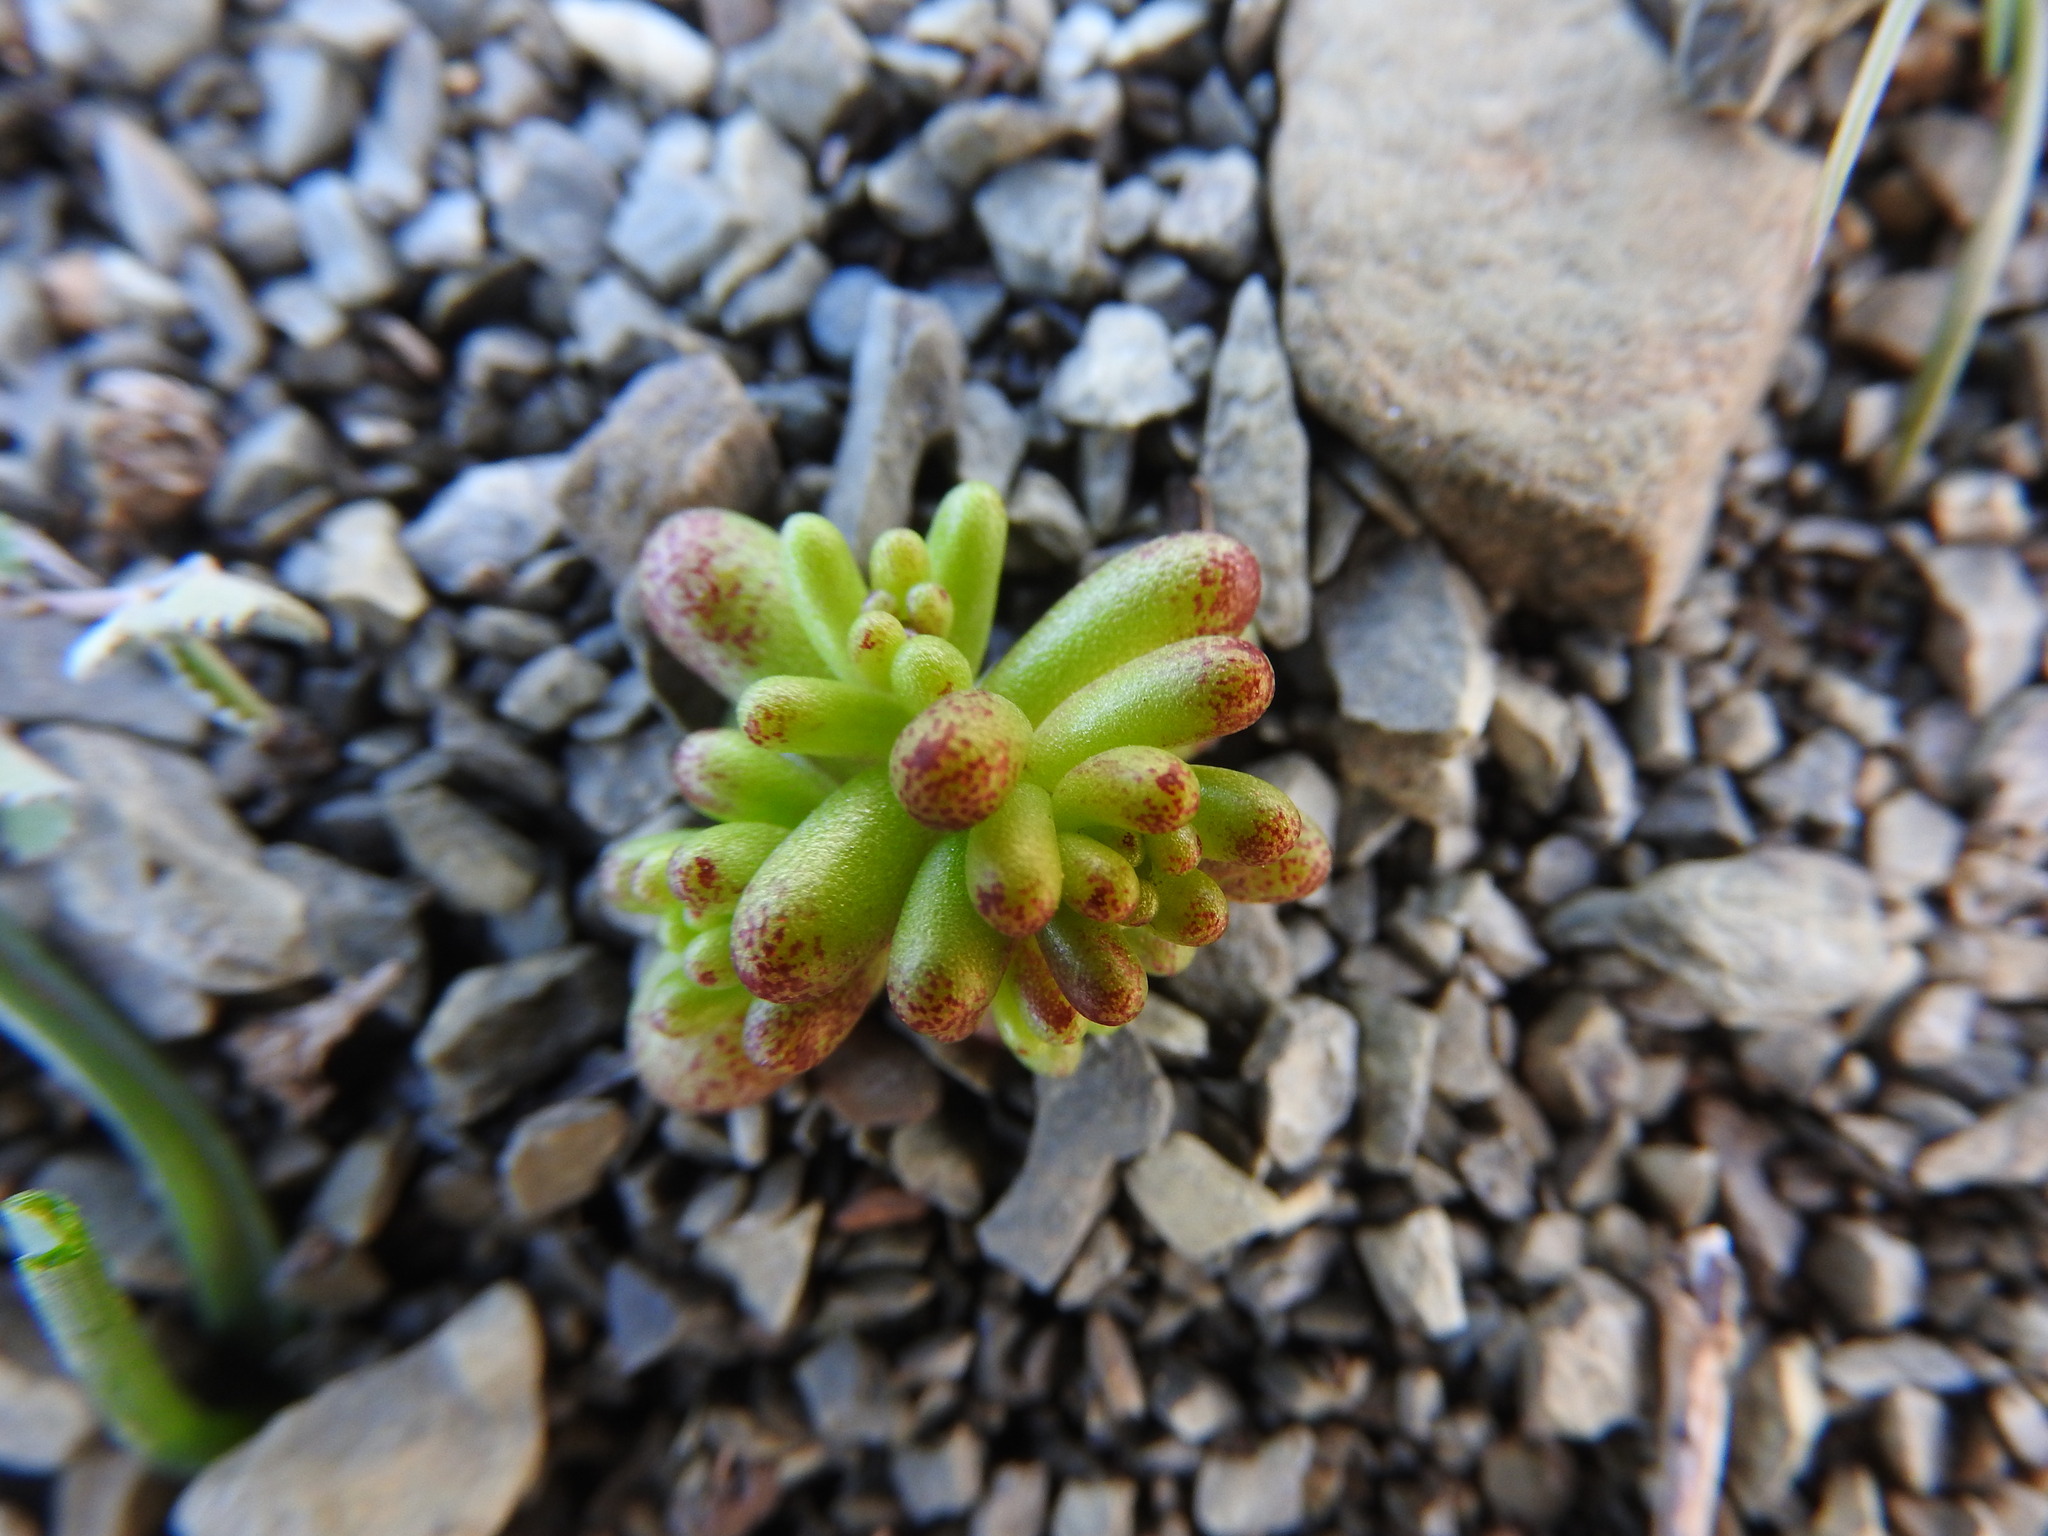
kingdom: Plantae
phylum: Tracheophyta
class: Magnoliopsida
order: Saxifragales
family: Crassulaceae
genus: Sedum
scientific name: Sedum caeruleum
